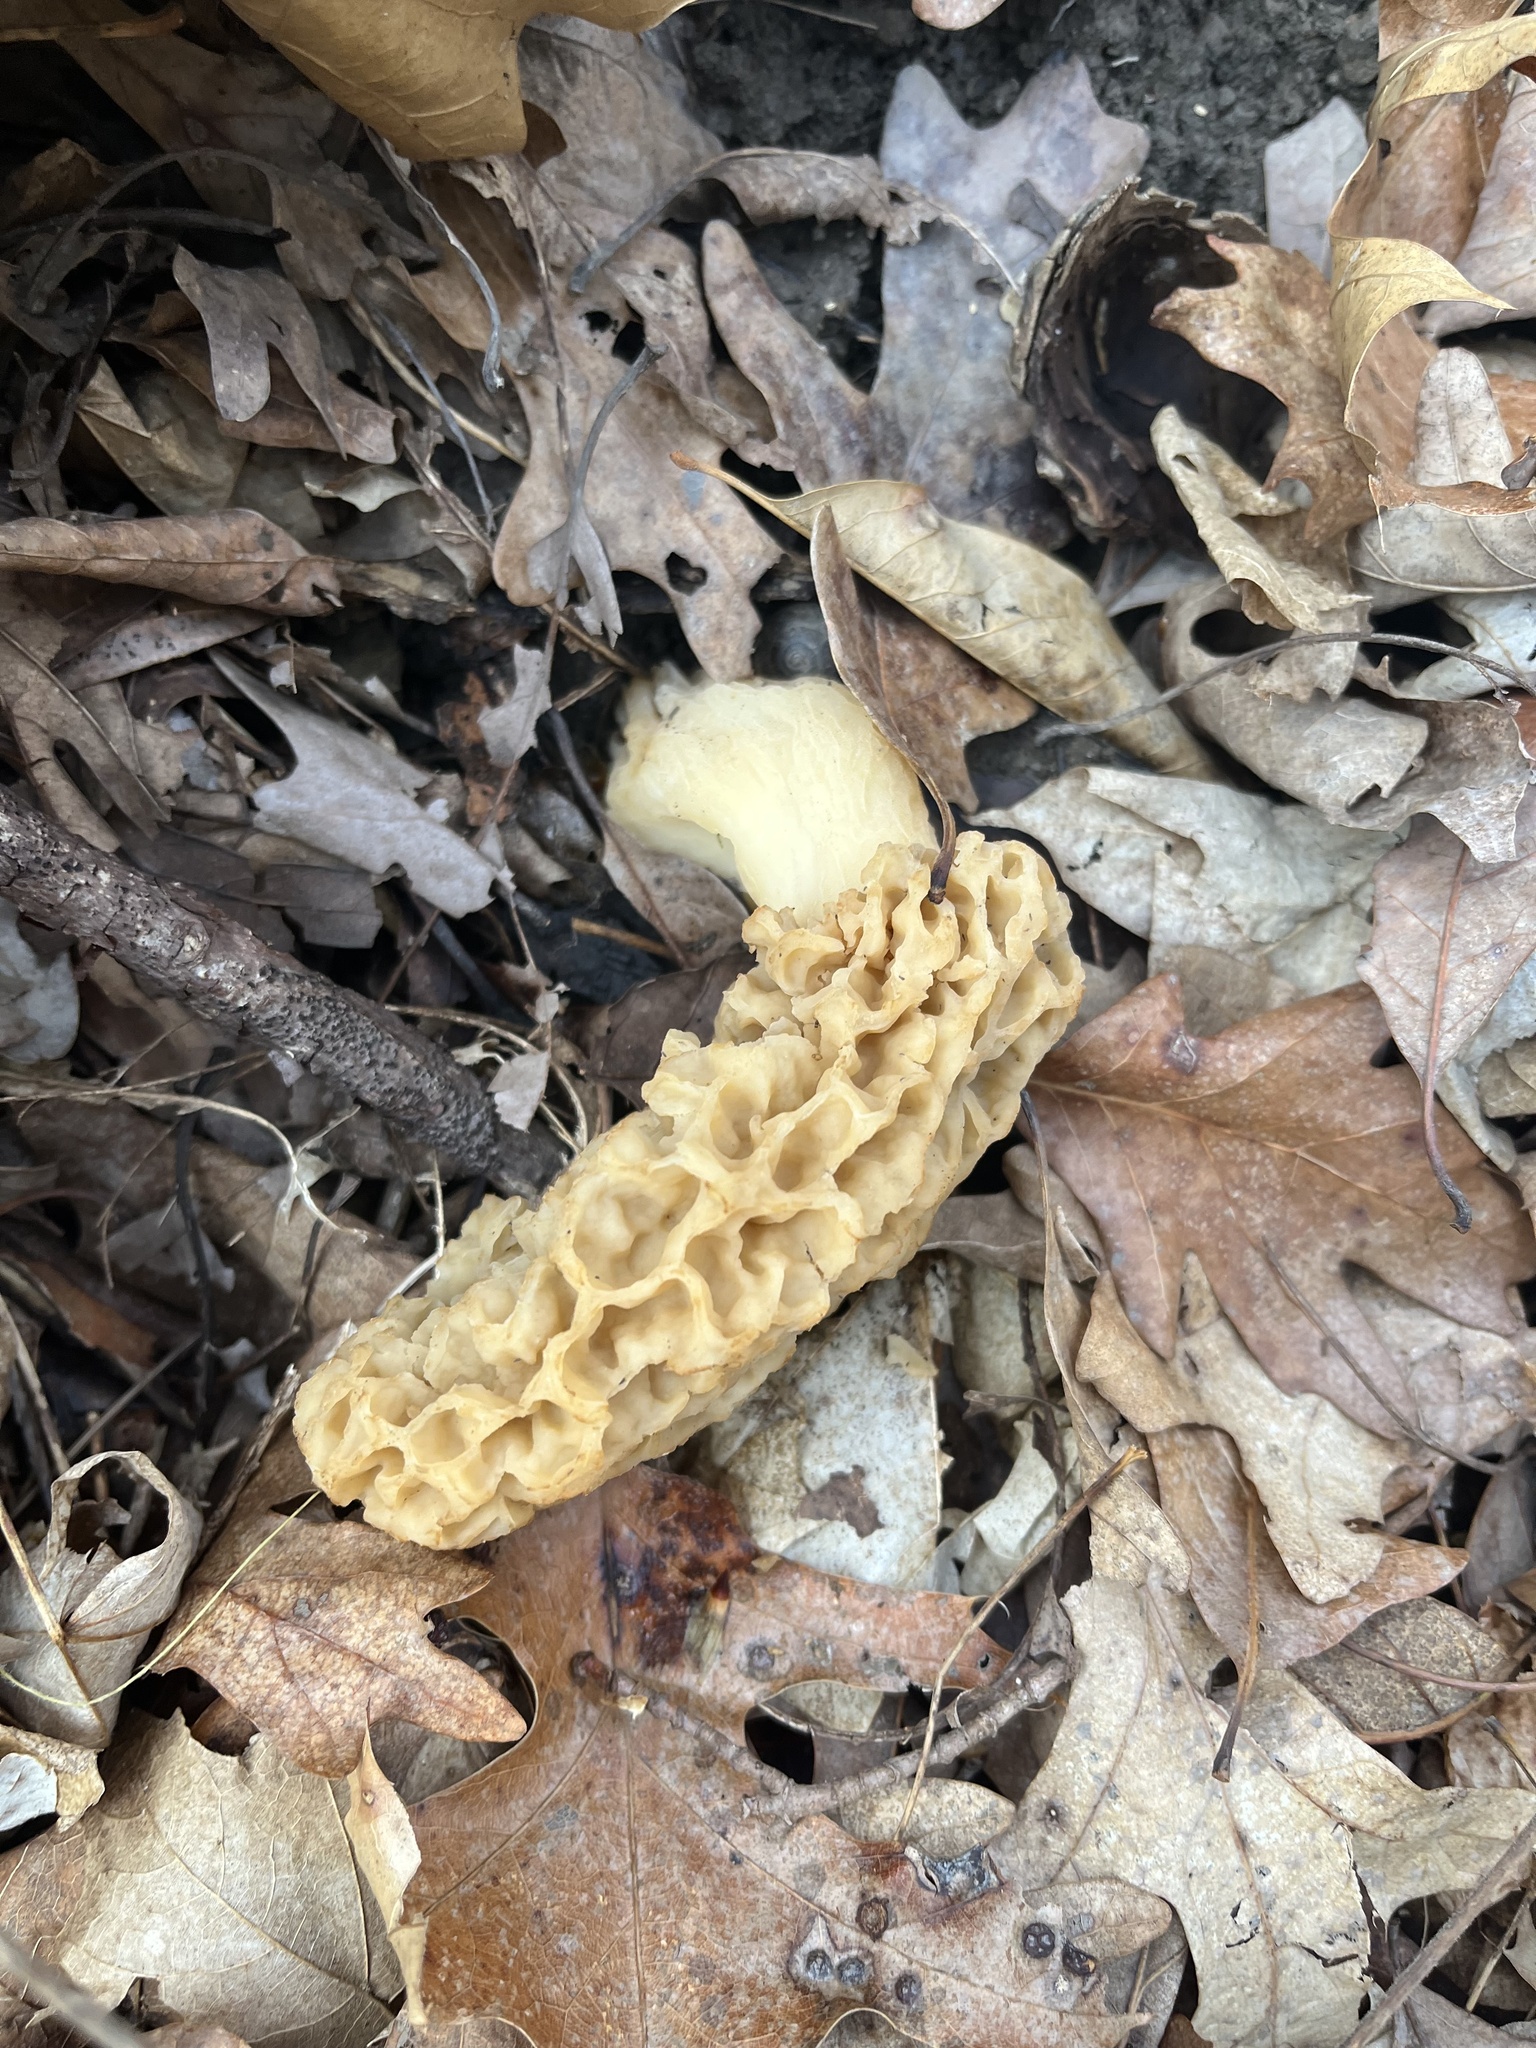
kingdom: Fungi
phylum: Ascomycota
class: Pezizomycetes
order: Pezizales
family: Morchellaceae
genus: Morchella
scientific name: Morchella americana
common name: White morel
